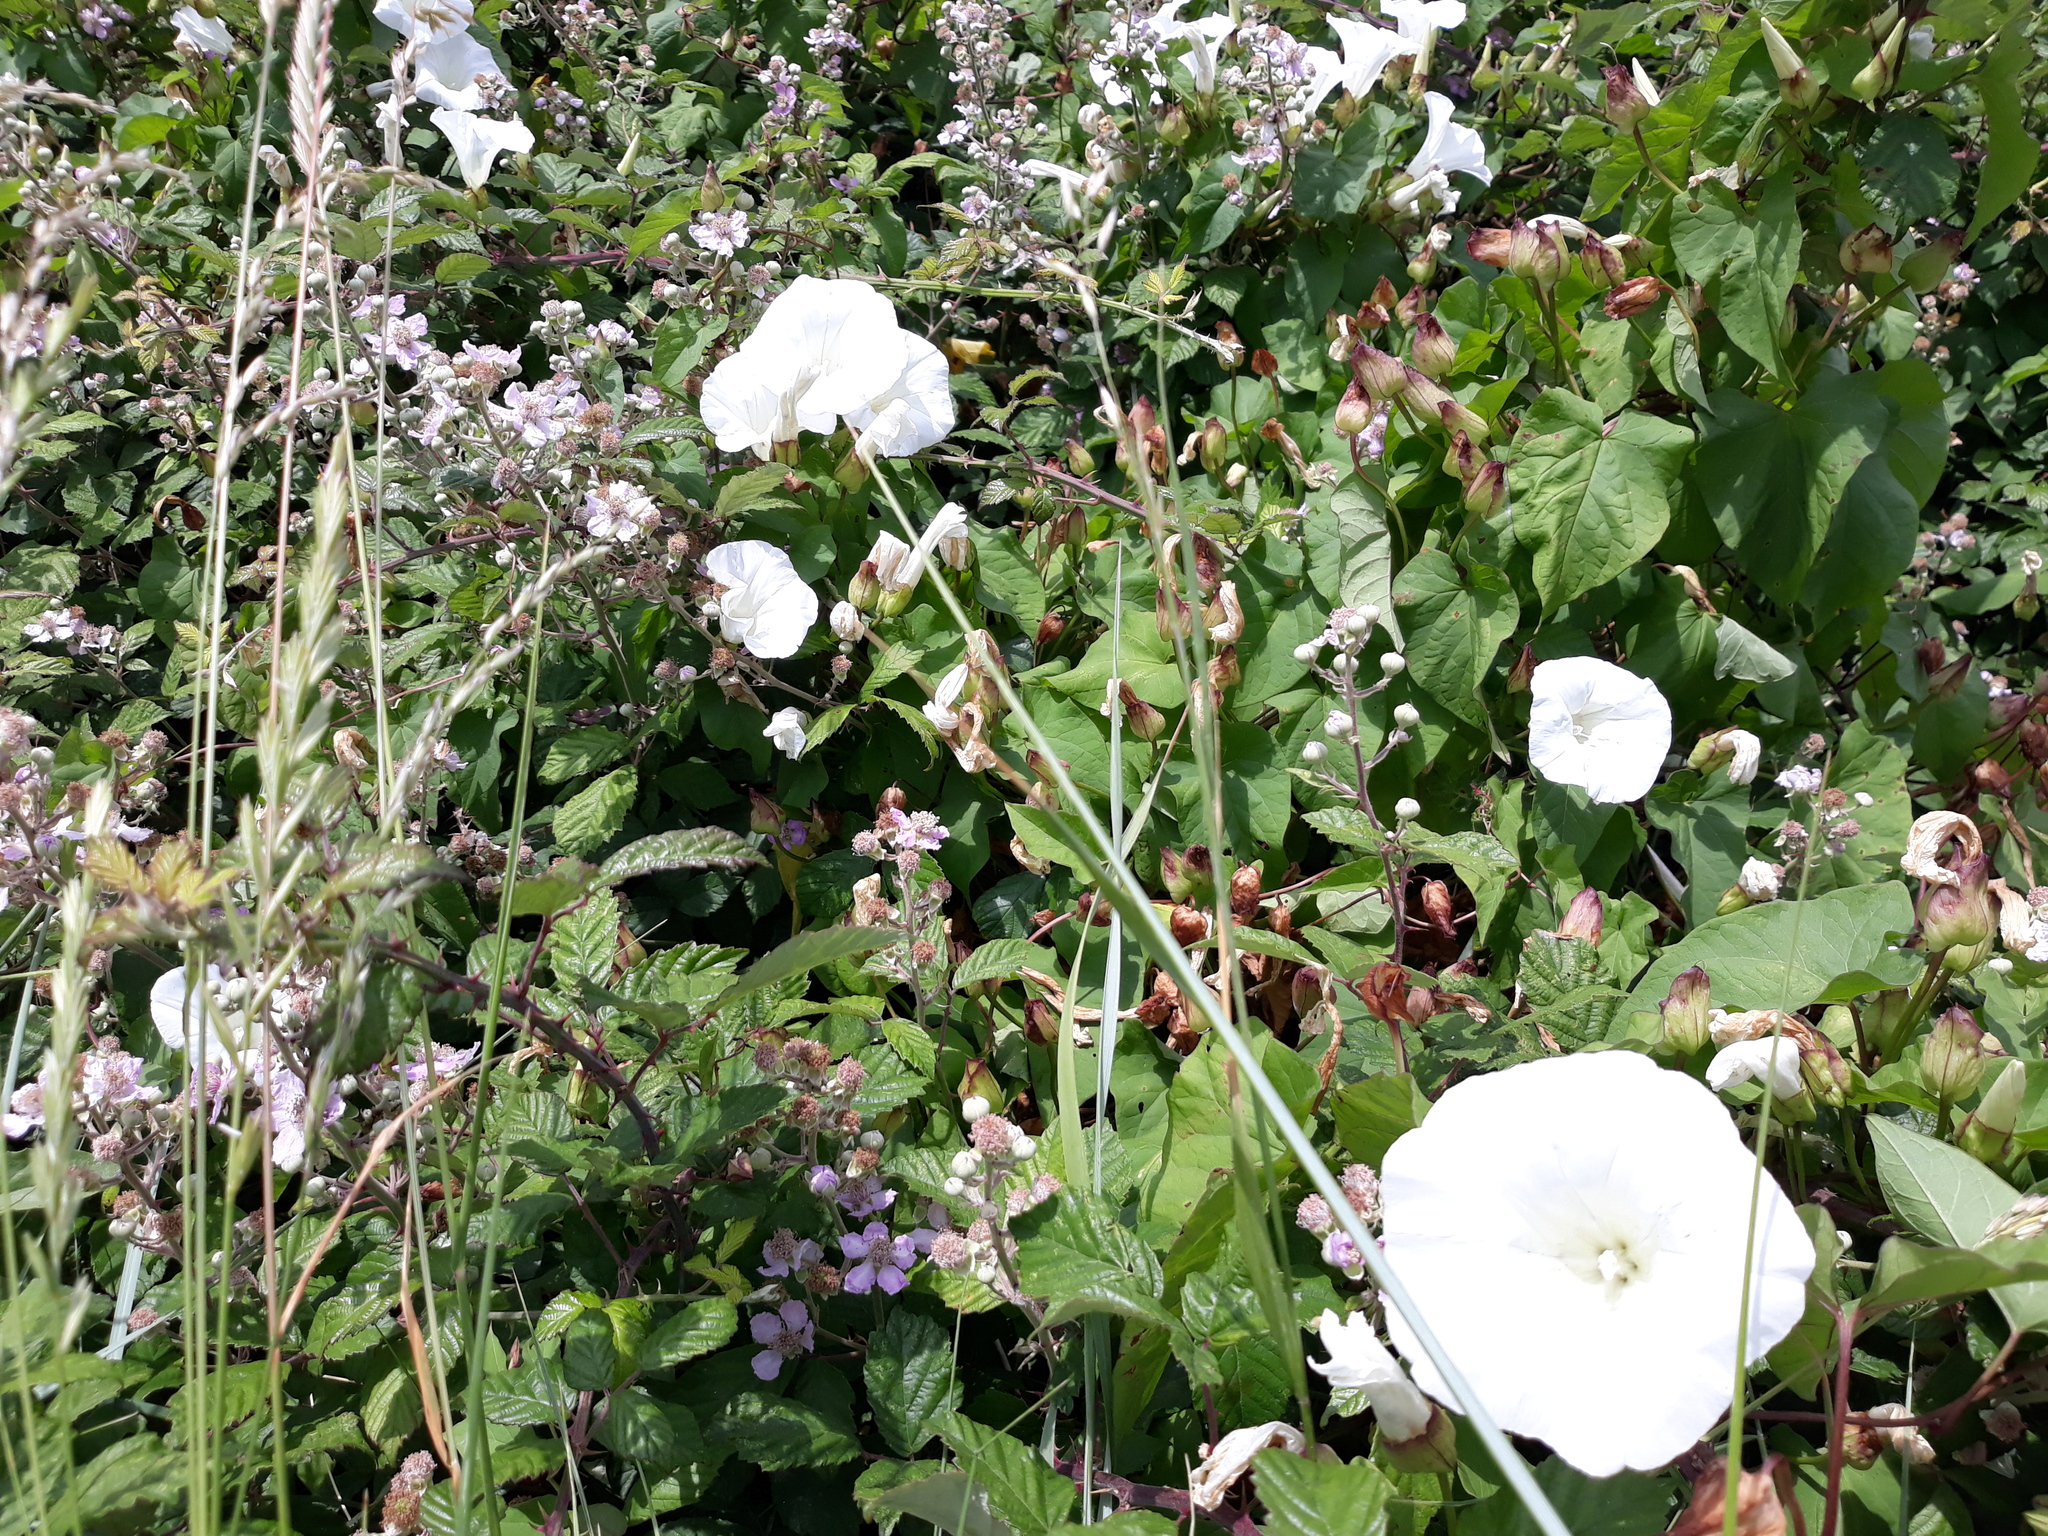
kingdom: Plantae
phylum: Tracheophyta
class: Magnoliopsida
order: Solanales
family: Convolvulaceae
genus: Calystegia
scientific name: Calystegia silvatica
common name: Large bindweed
